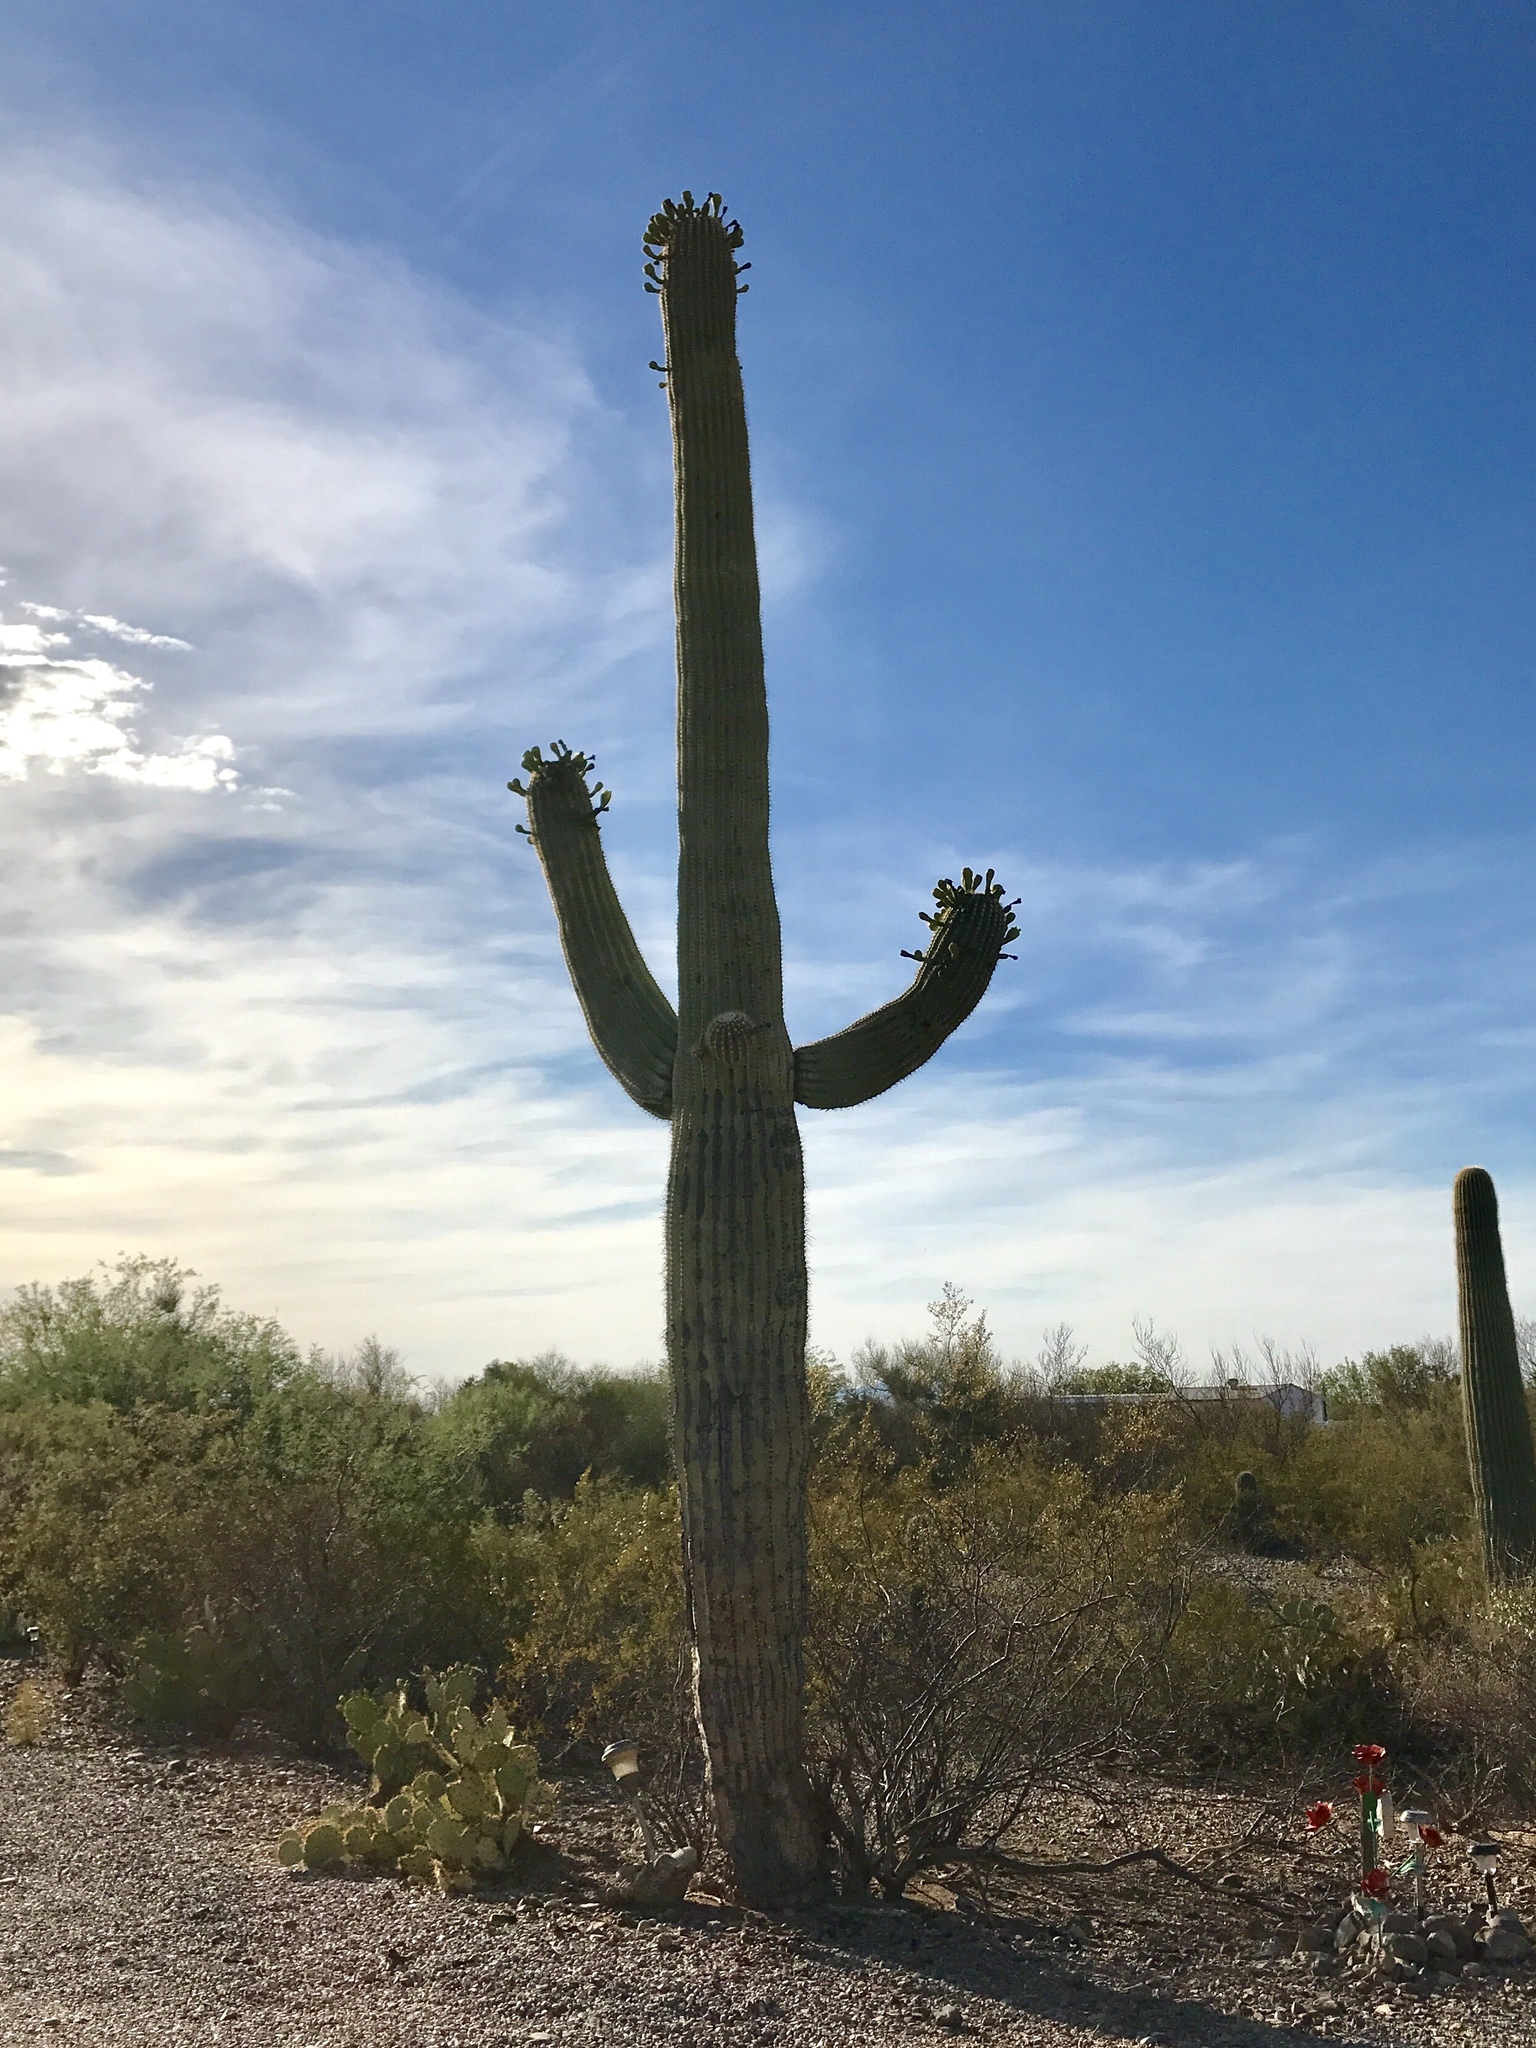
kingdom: Plantae
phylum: Tracheophyta
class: Magnoliopsida
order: Caryophyllales
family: Cactaceae
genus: Carnegiea
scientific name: Carnegiea gigantea
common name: Saguaro
